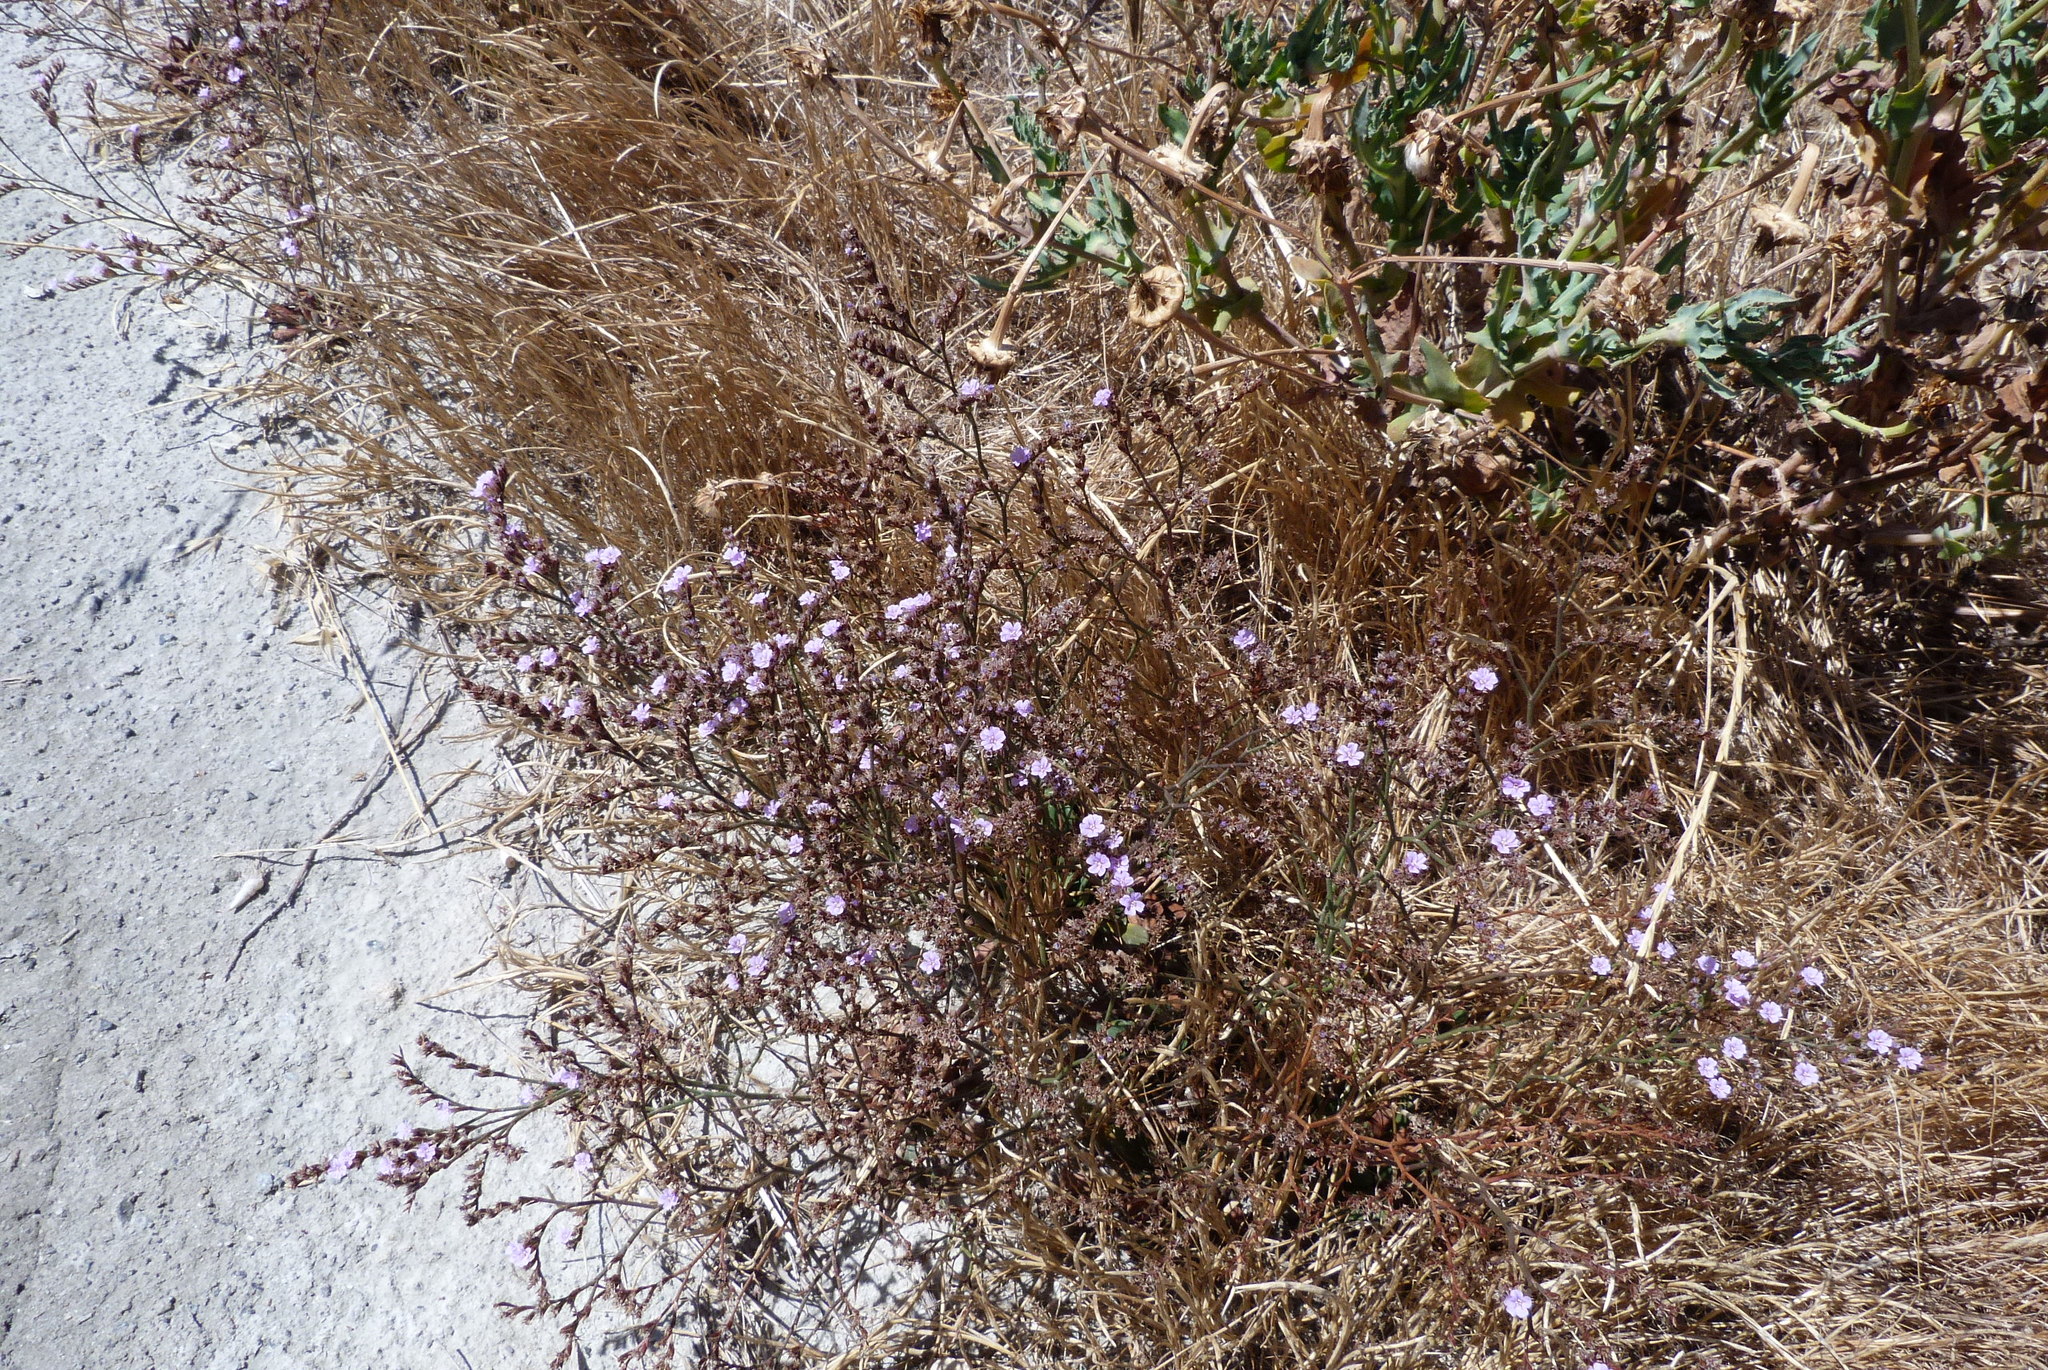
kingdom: Plantae
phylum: Tracheophyta
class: Magnoliopsida
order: Caryophyllales
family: Plumbaginaceae
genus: Limonium
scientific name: Limonium
